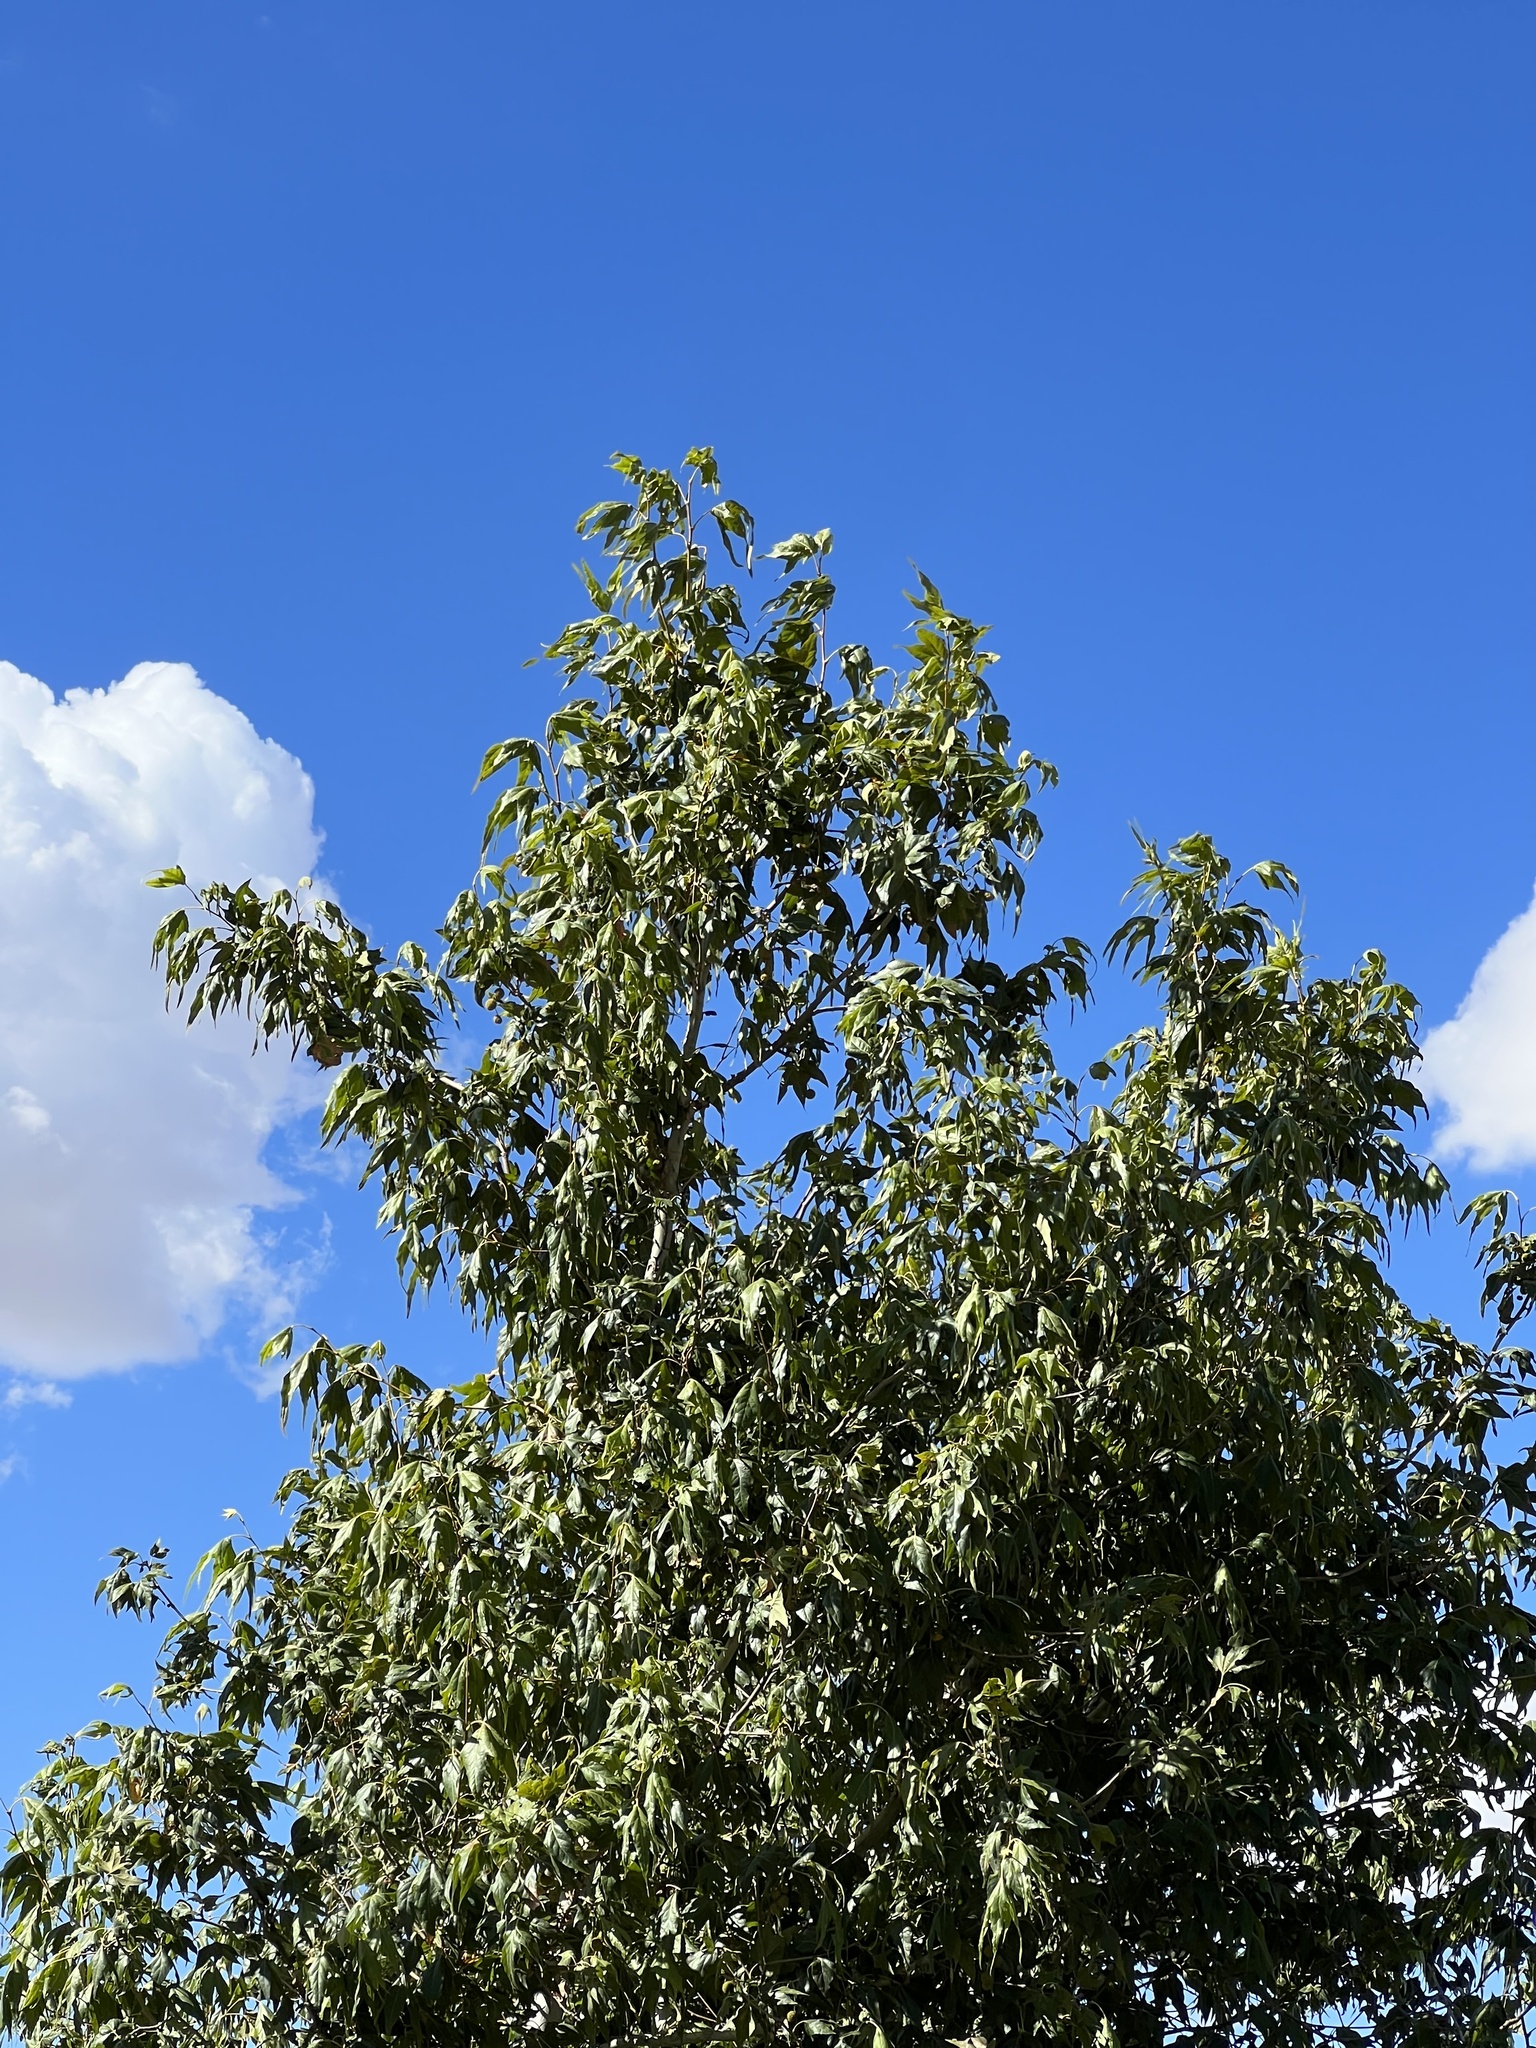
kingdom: Plantae
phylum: Tracheophyta
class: Magnoliopsida
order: Proteales
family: Platanaceae
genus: Platanus
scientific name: Platanus wrightii
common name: Arizona sycamore
